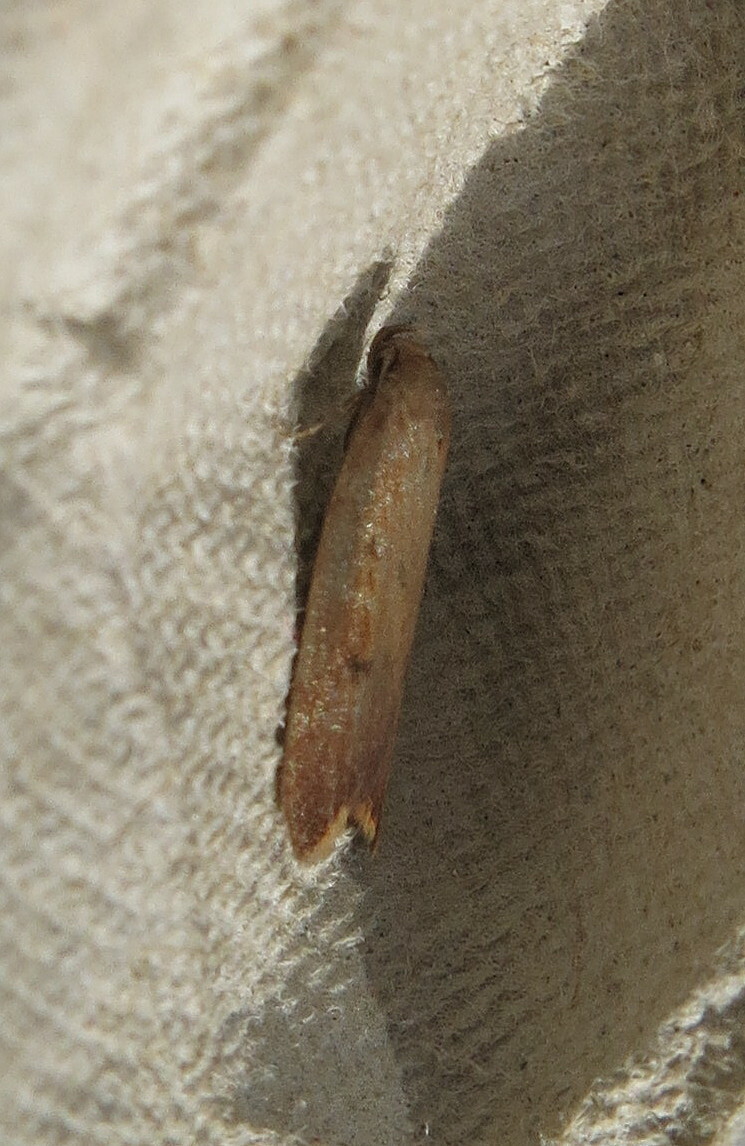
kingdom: Animalia
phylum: Arthropoda
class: Insecta
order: Lepidoptera
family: Oecophoridae
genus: Tachystola
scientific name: Tachystola acroxantha
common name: Ruddy streak
